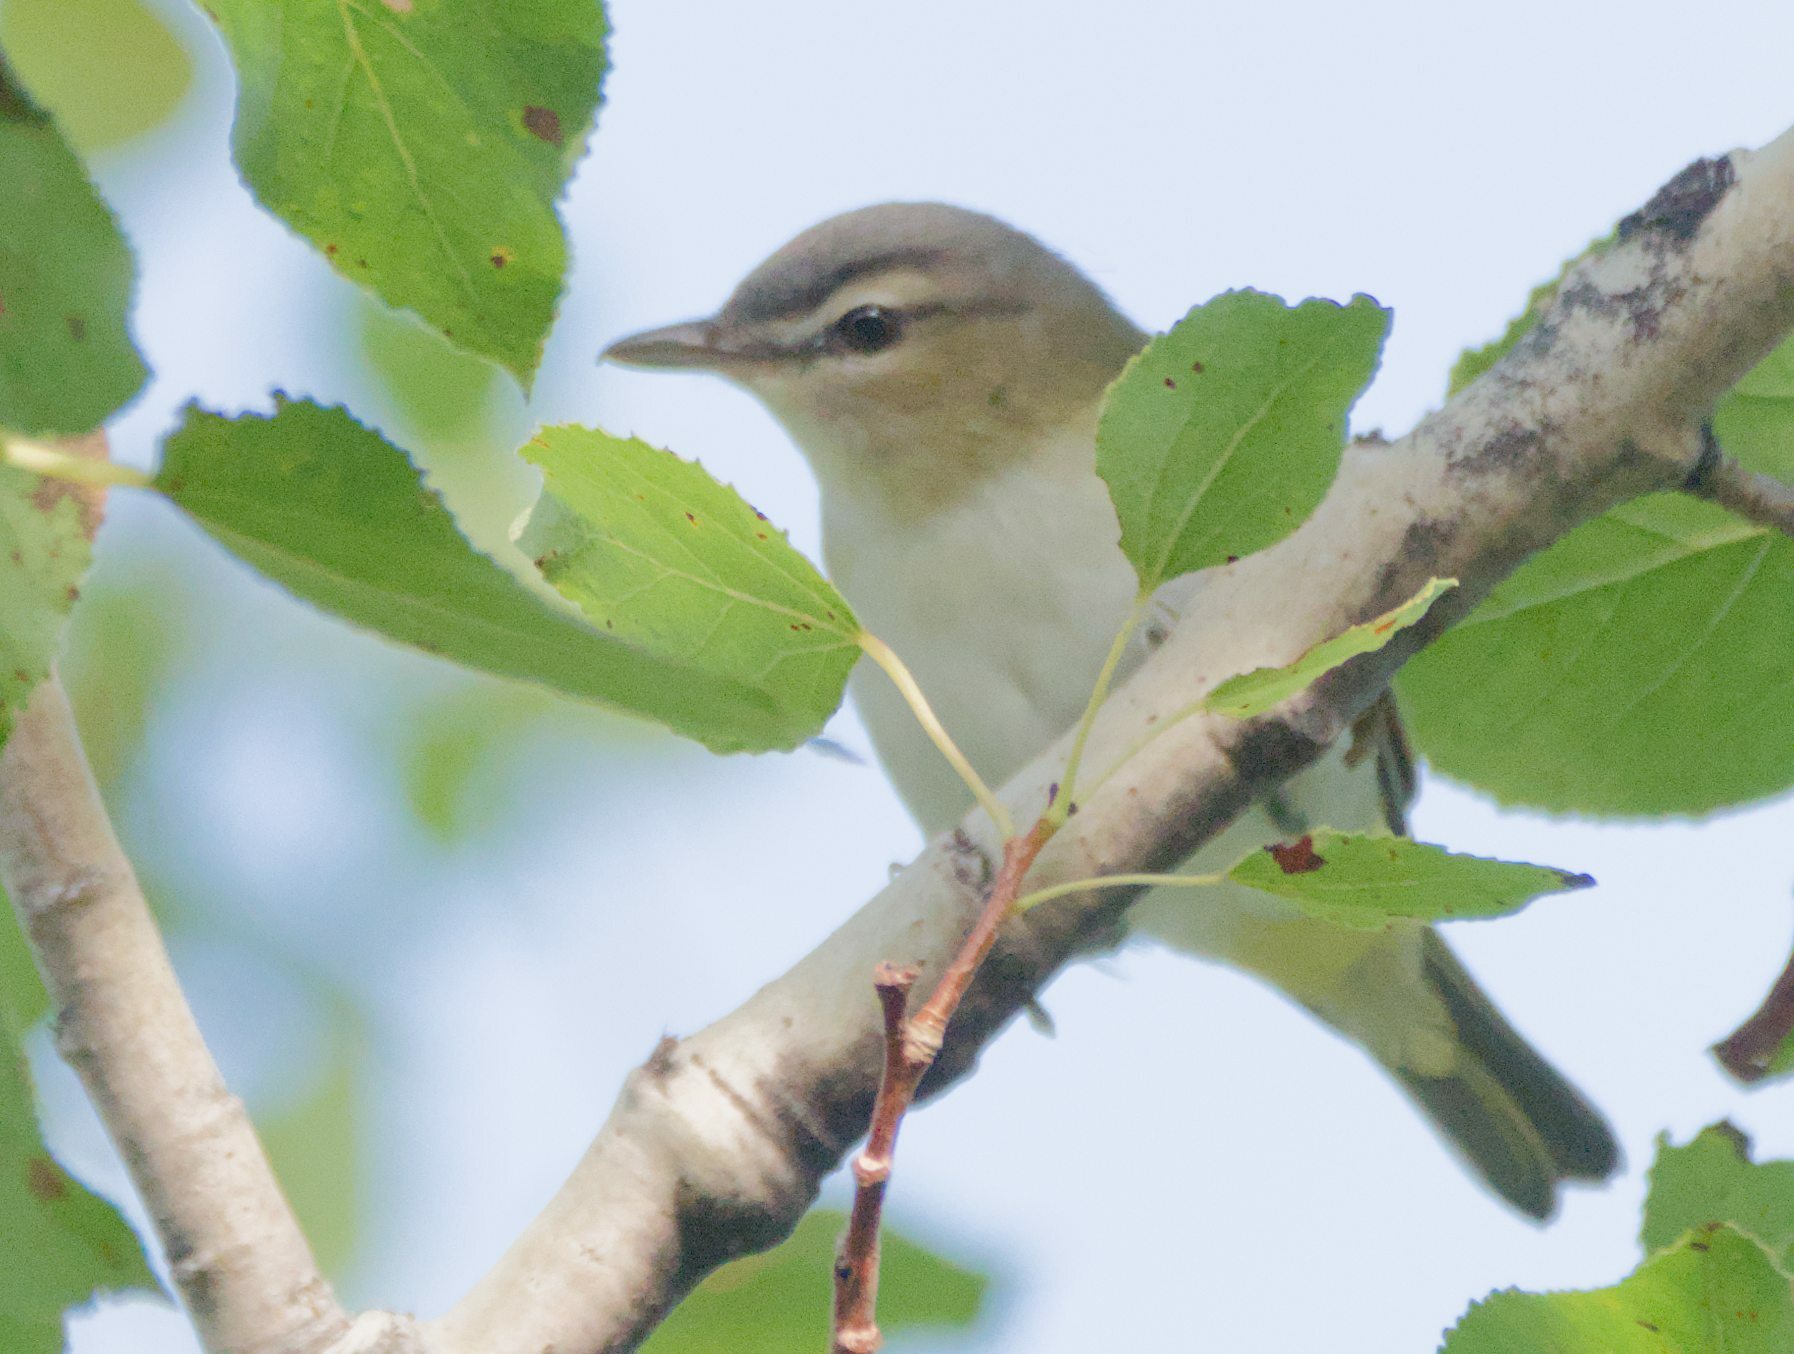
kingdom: Animalia
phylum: Chordata
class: Aves
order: Passeriformes
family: Vireonidae
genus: Vireo
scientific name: Vireo olivaceus
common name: Red-eyed vireo
